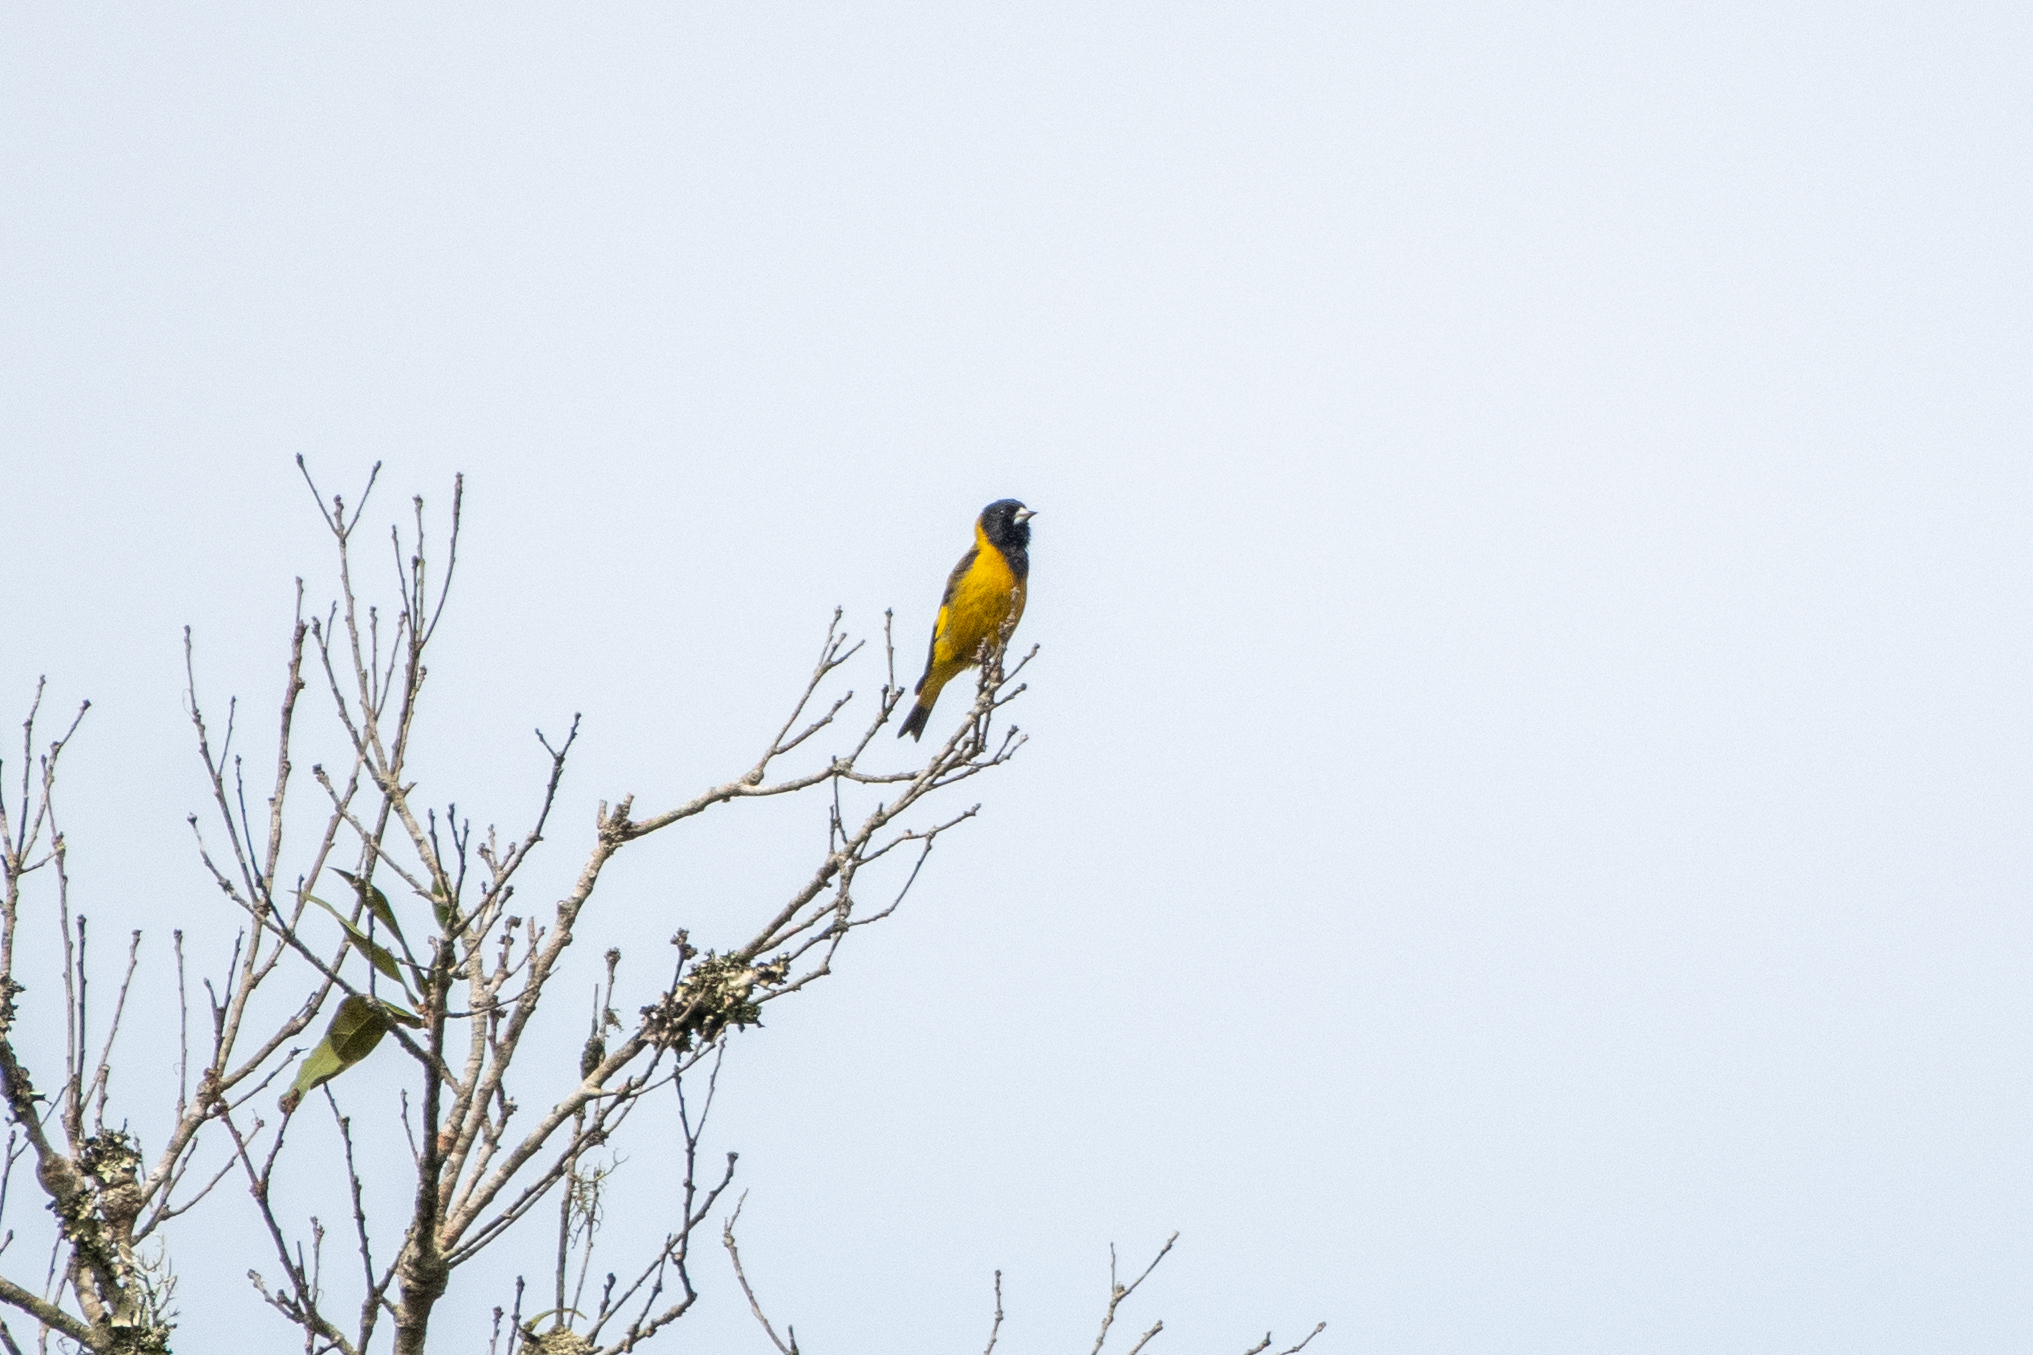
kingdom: Animalia
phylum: Chordata
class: Aves
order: Passeriformes
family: Fringillidae
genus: Spinus
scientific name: Spinus notatus
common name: Black-headed siskin
